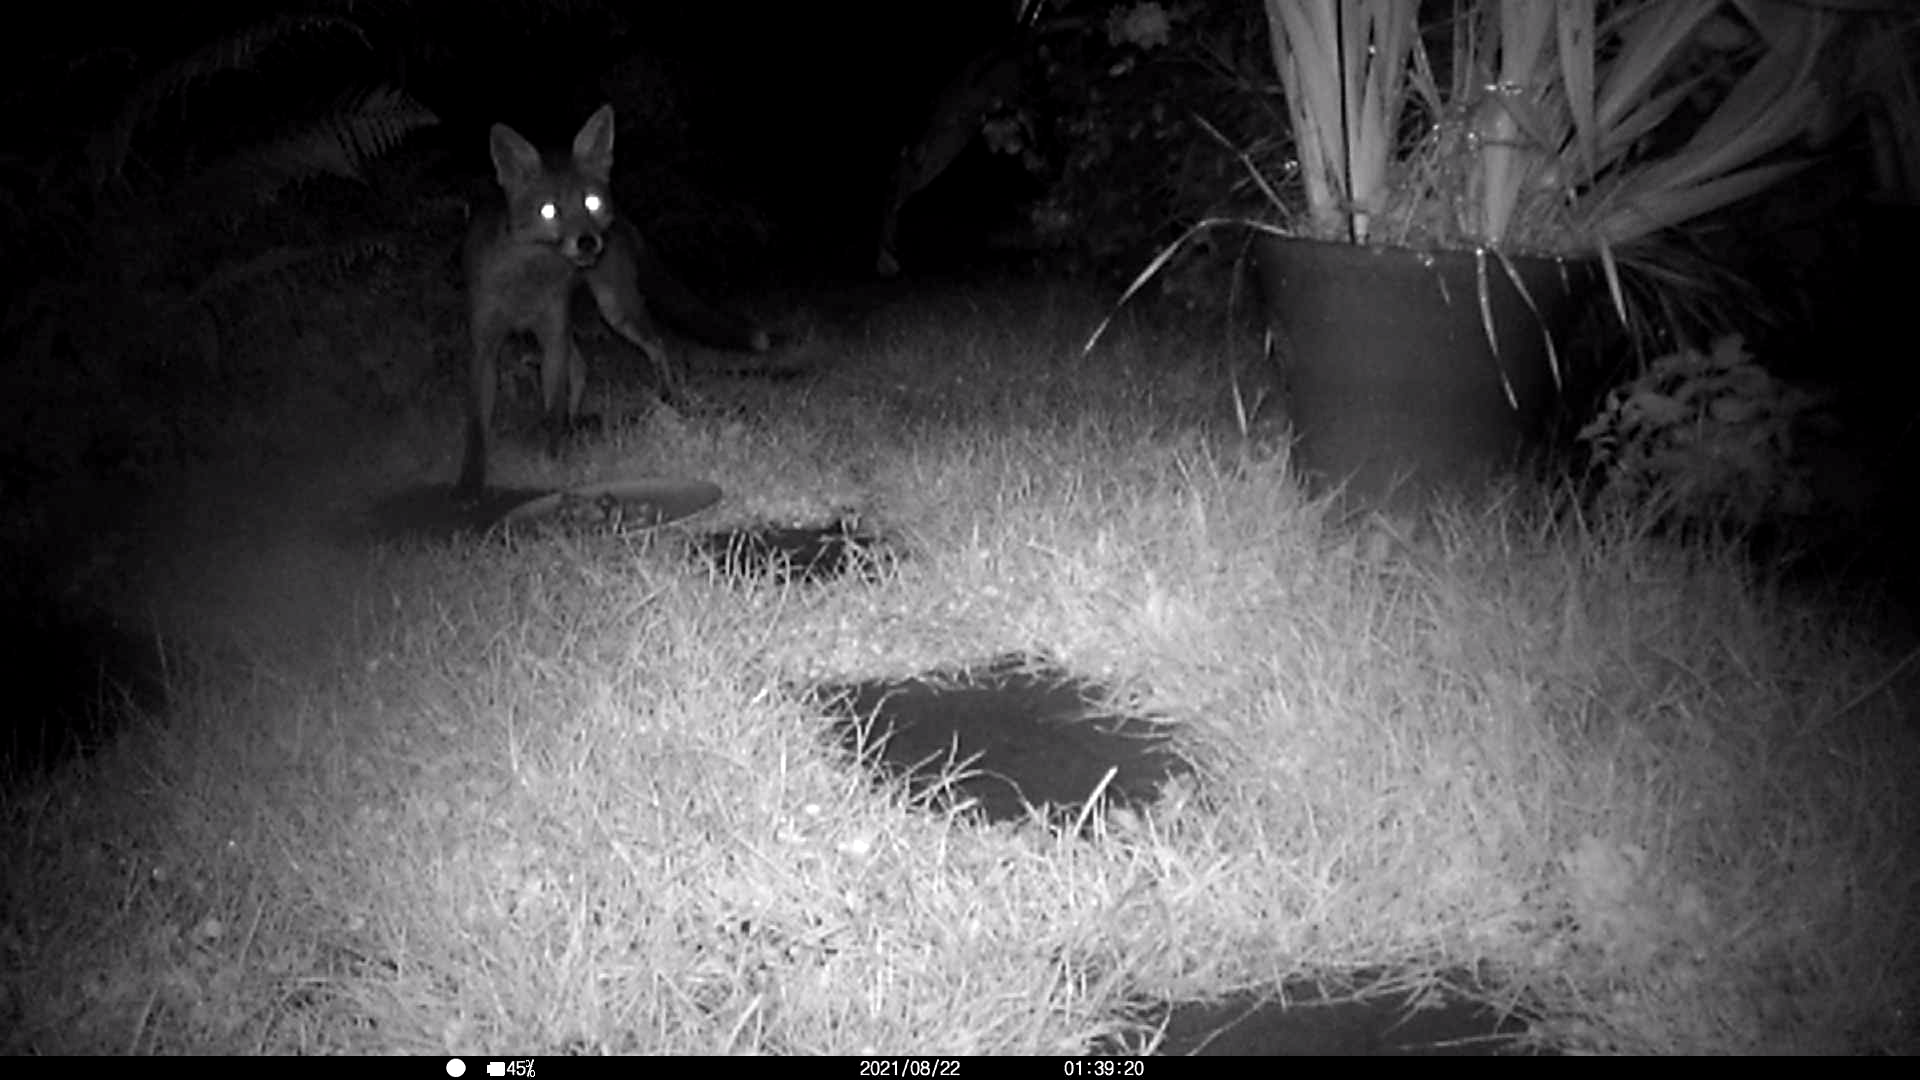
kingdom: Animalia
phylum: Chordata
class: Mammalia
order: Carnivora
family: Canidae
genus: Vulpes
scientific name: Vulpes vulpes
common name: Red fox
